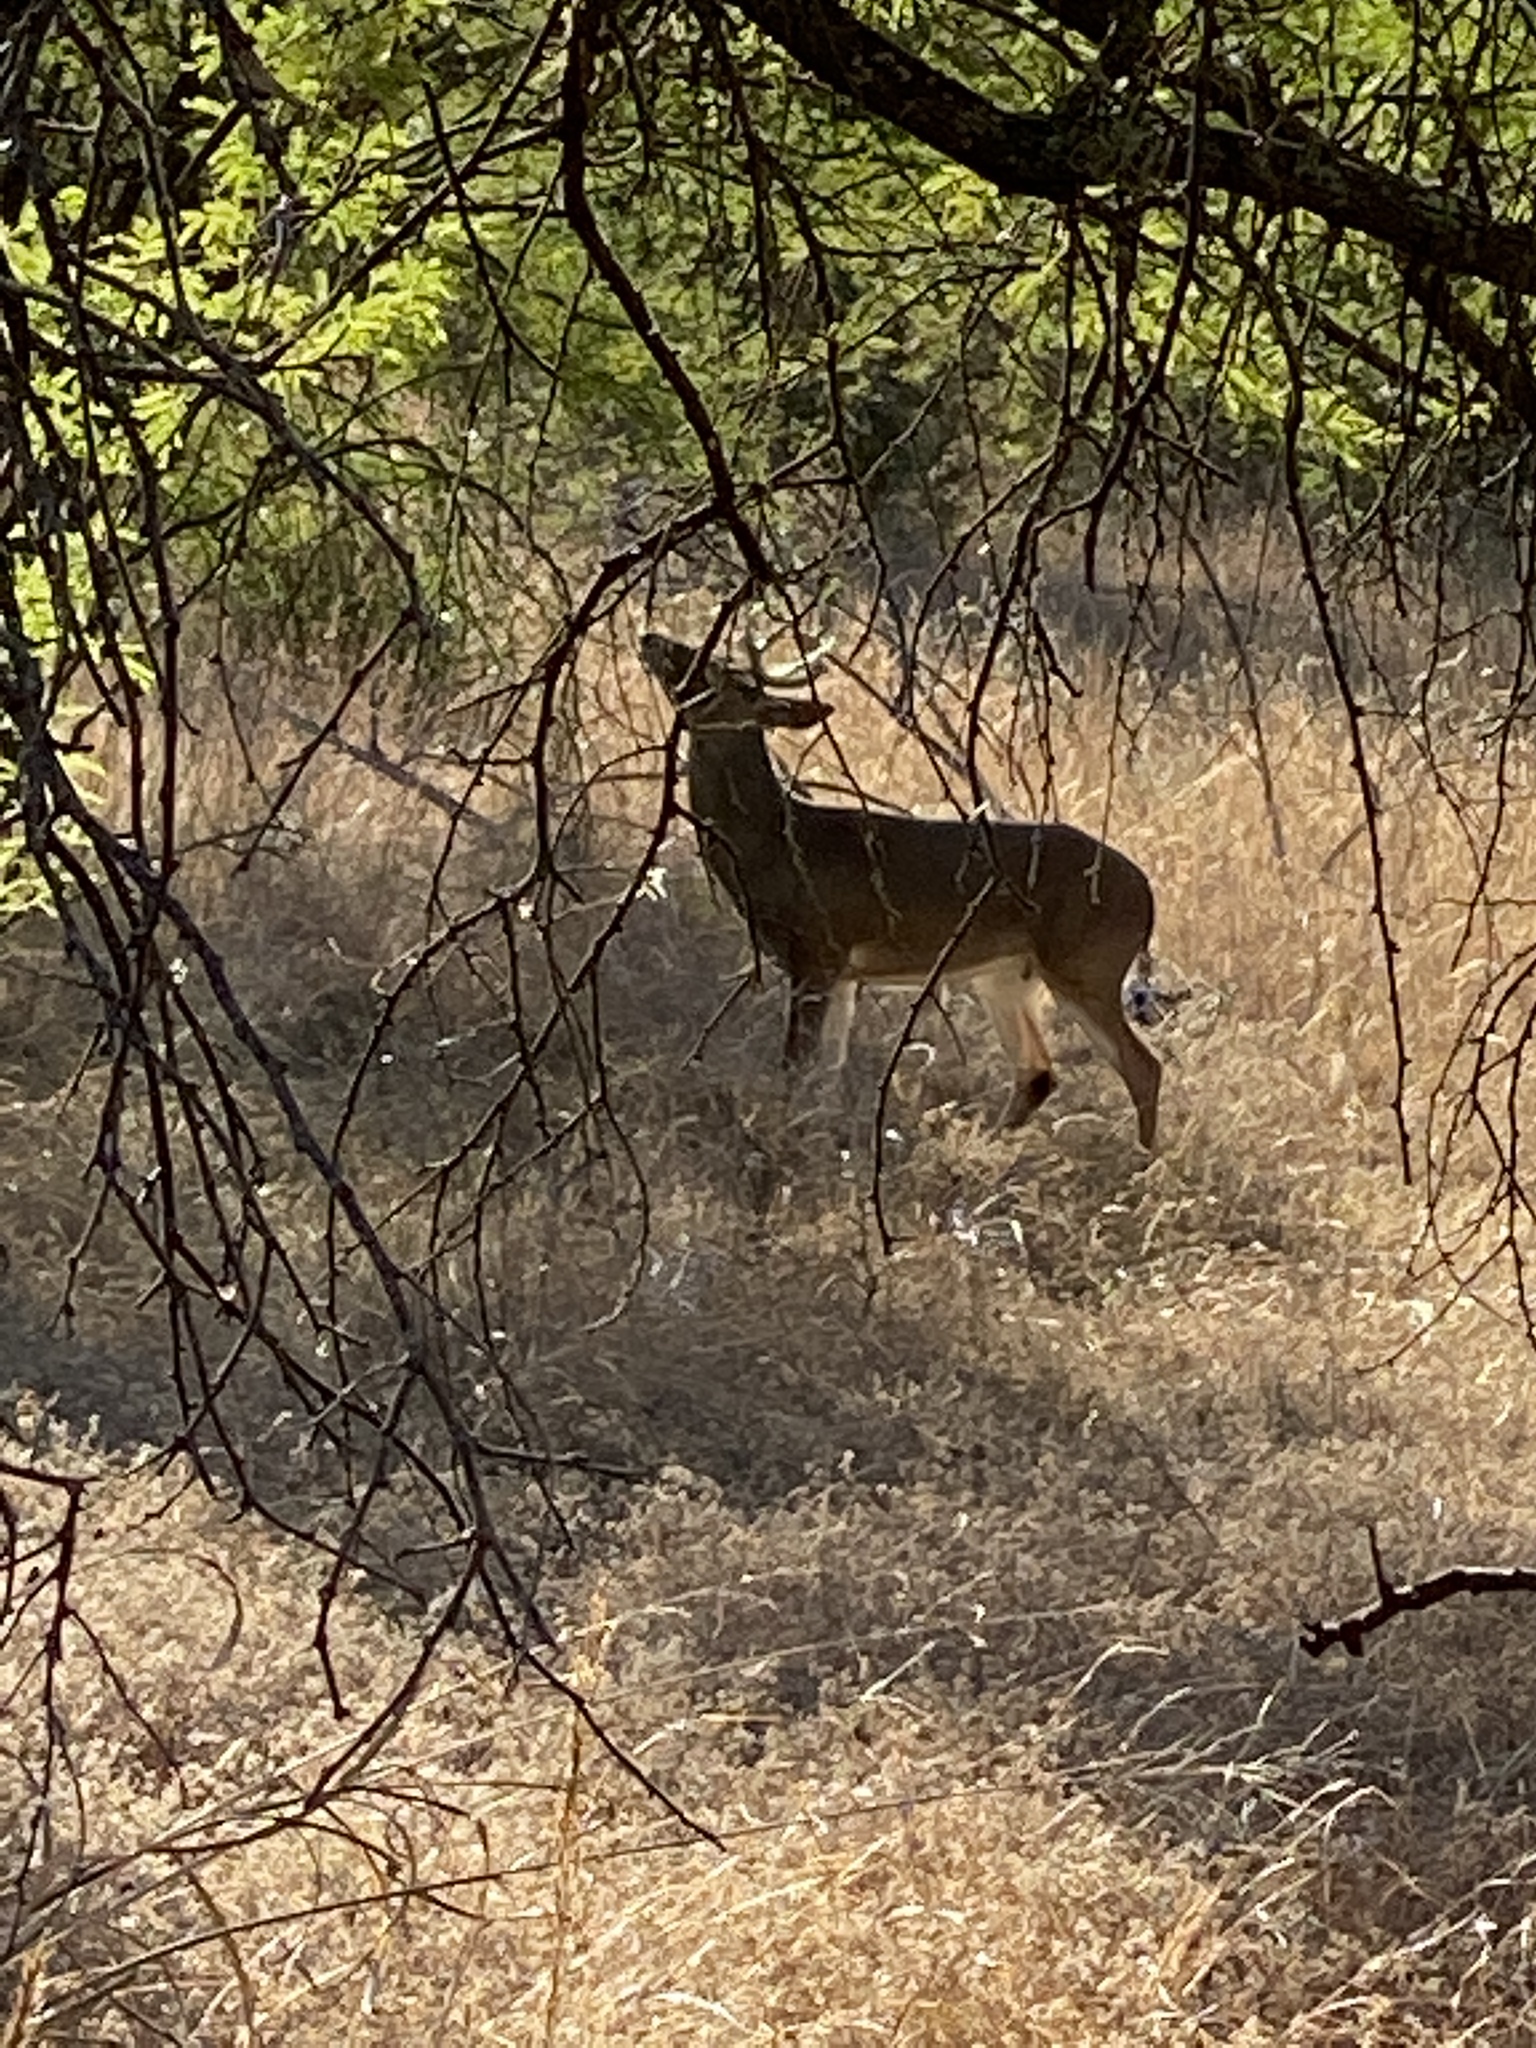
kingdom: Animalia
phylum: Chordata
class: Mammalia
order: Artiodactyla
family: Cervidae
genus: Odocoileus
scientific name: Odocoileus virginianus
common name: White-tailed deer
